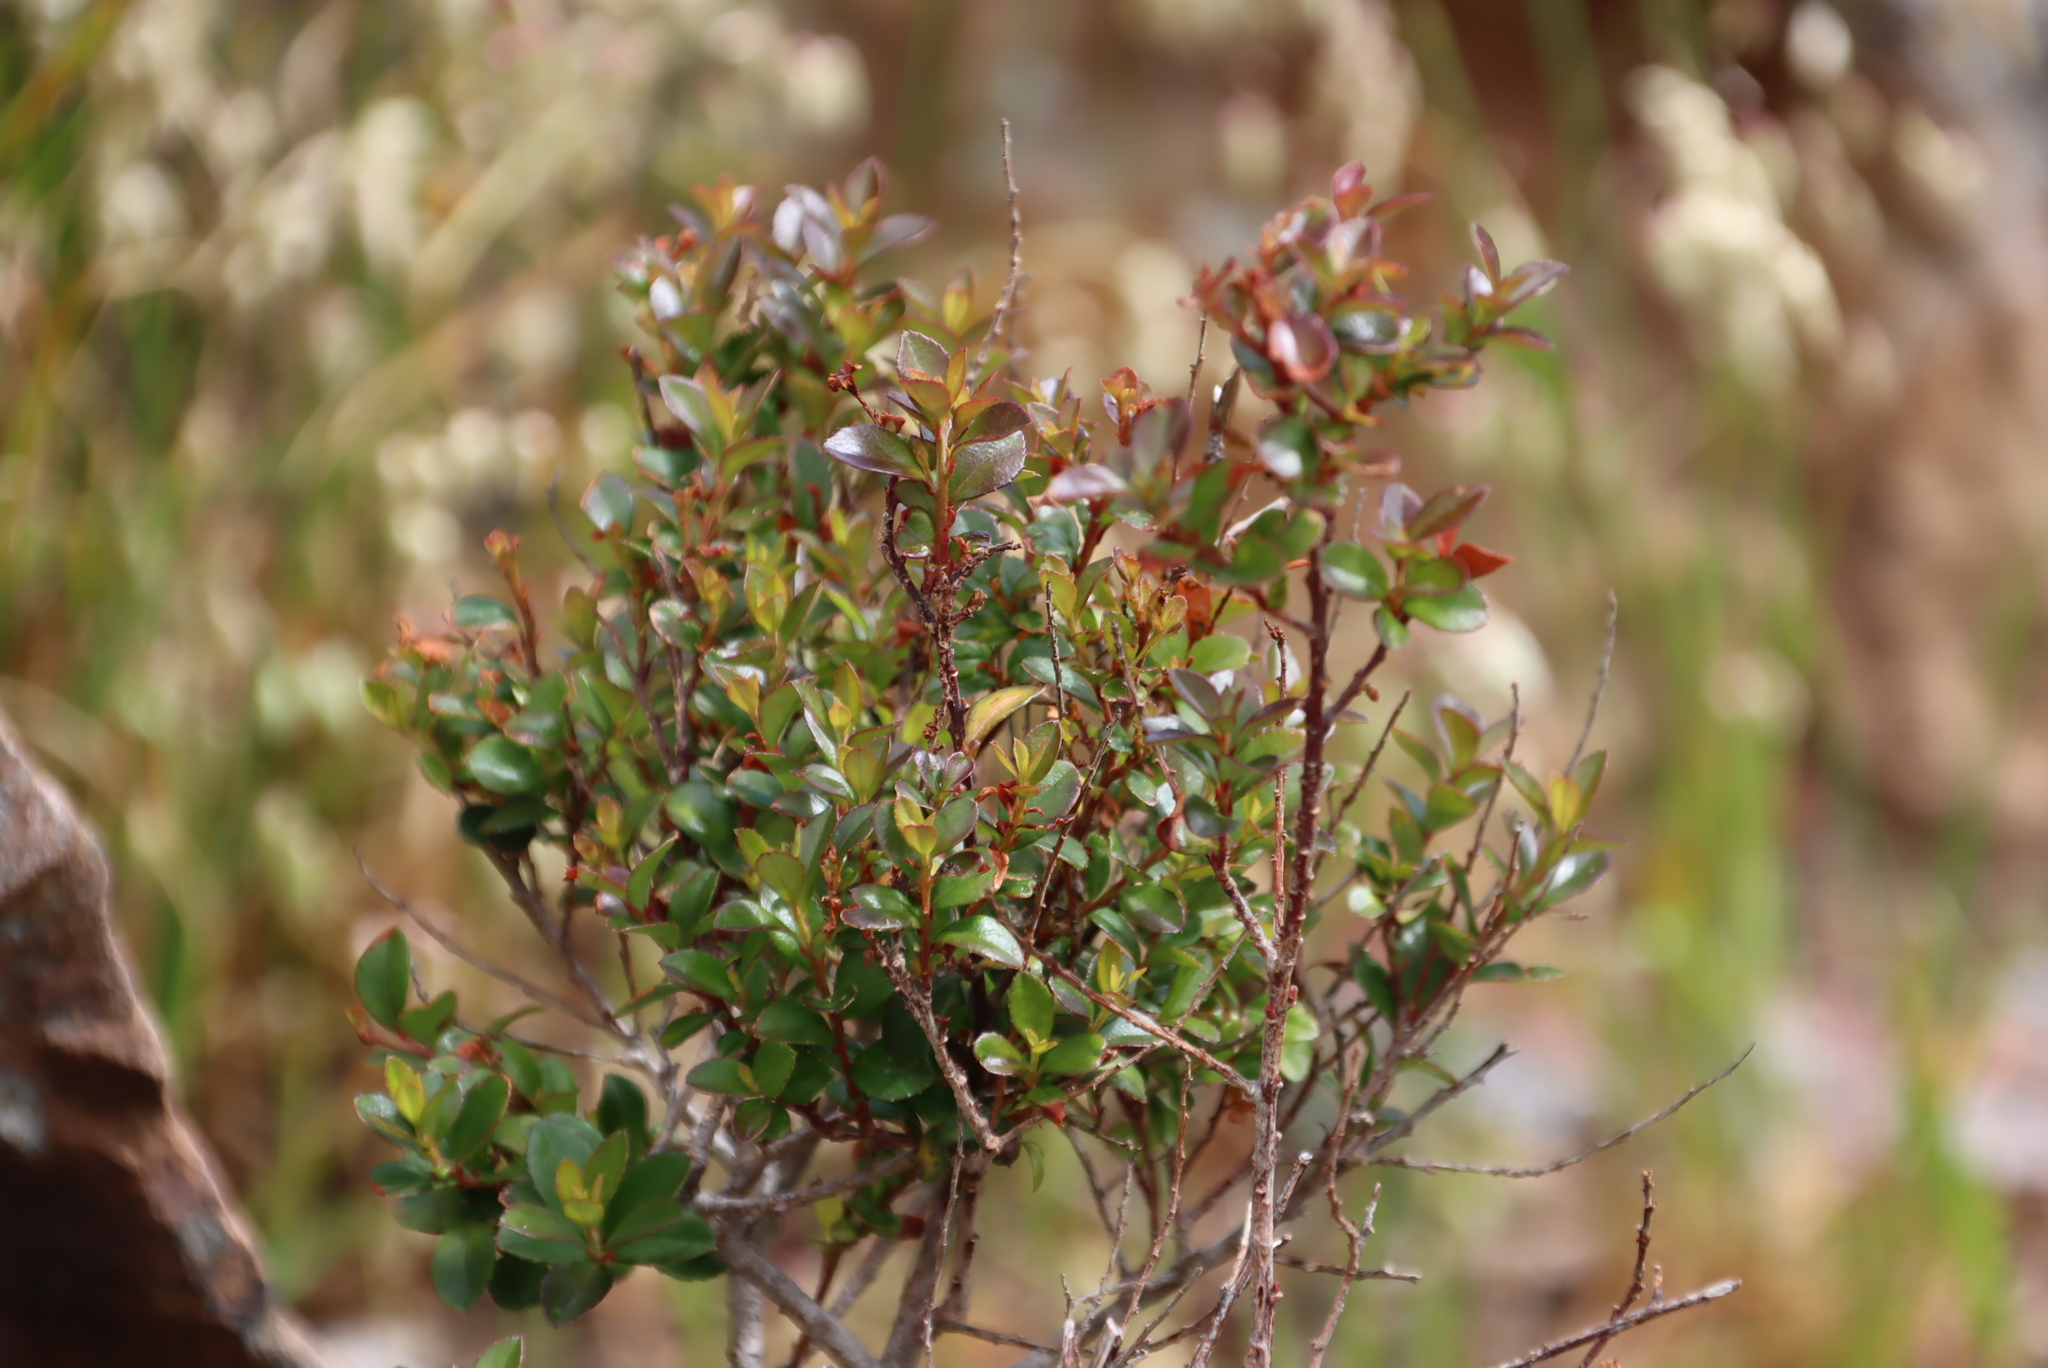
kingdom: Plantae
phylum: Tracheophyta
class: Magnoliopsida
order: Ericales
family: Primulaceae
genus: Myrsine
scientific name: Myrsine africana
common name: African-boxwood
